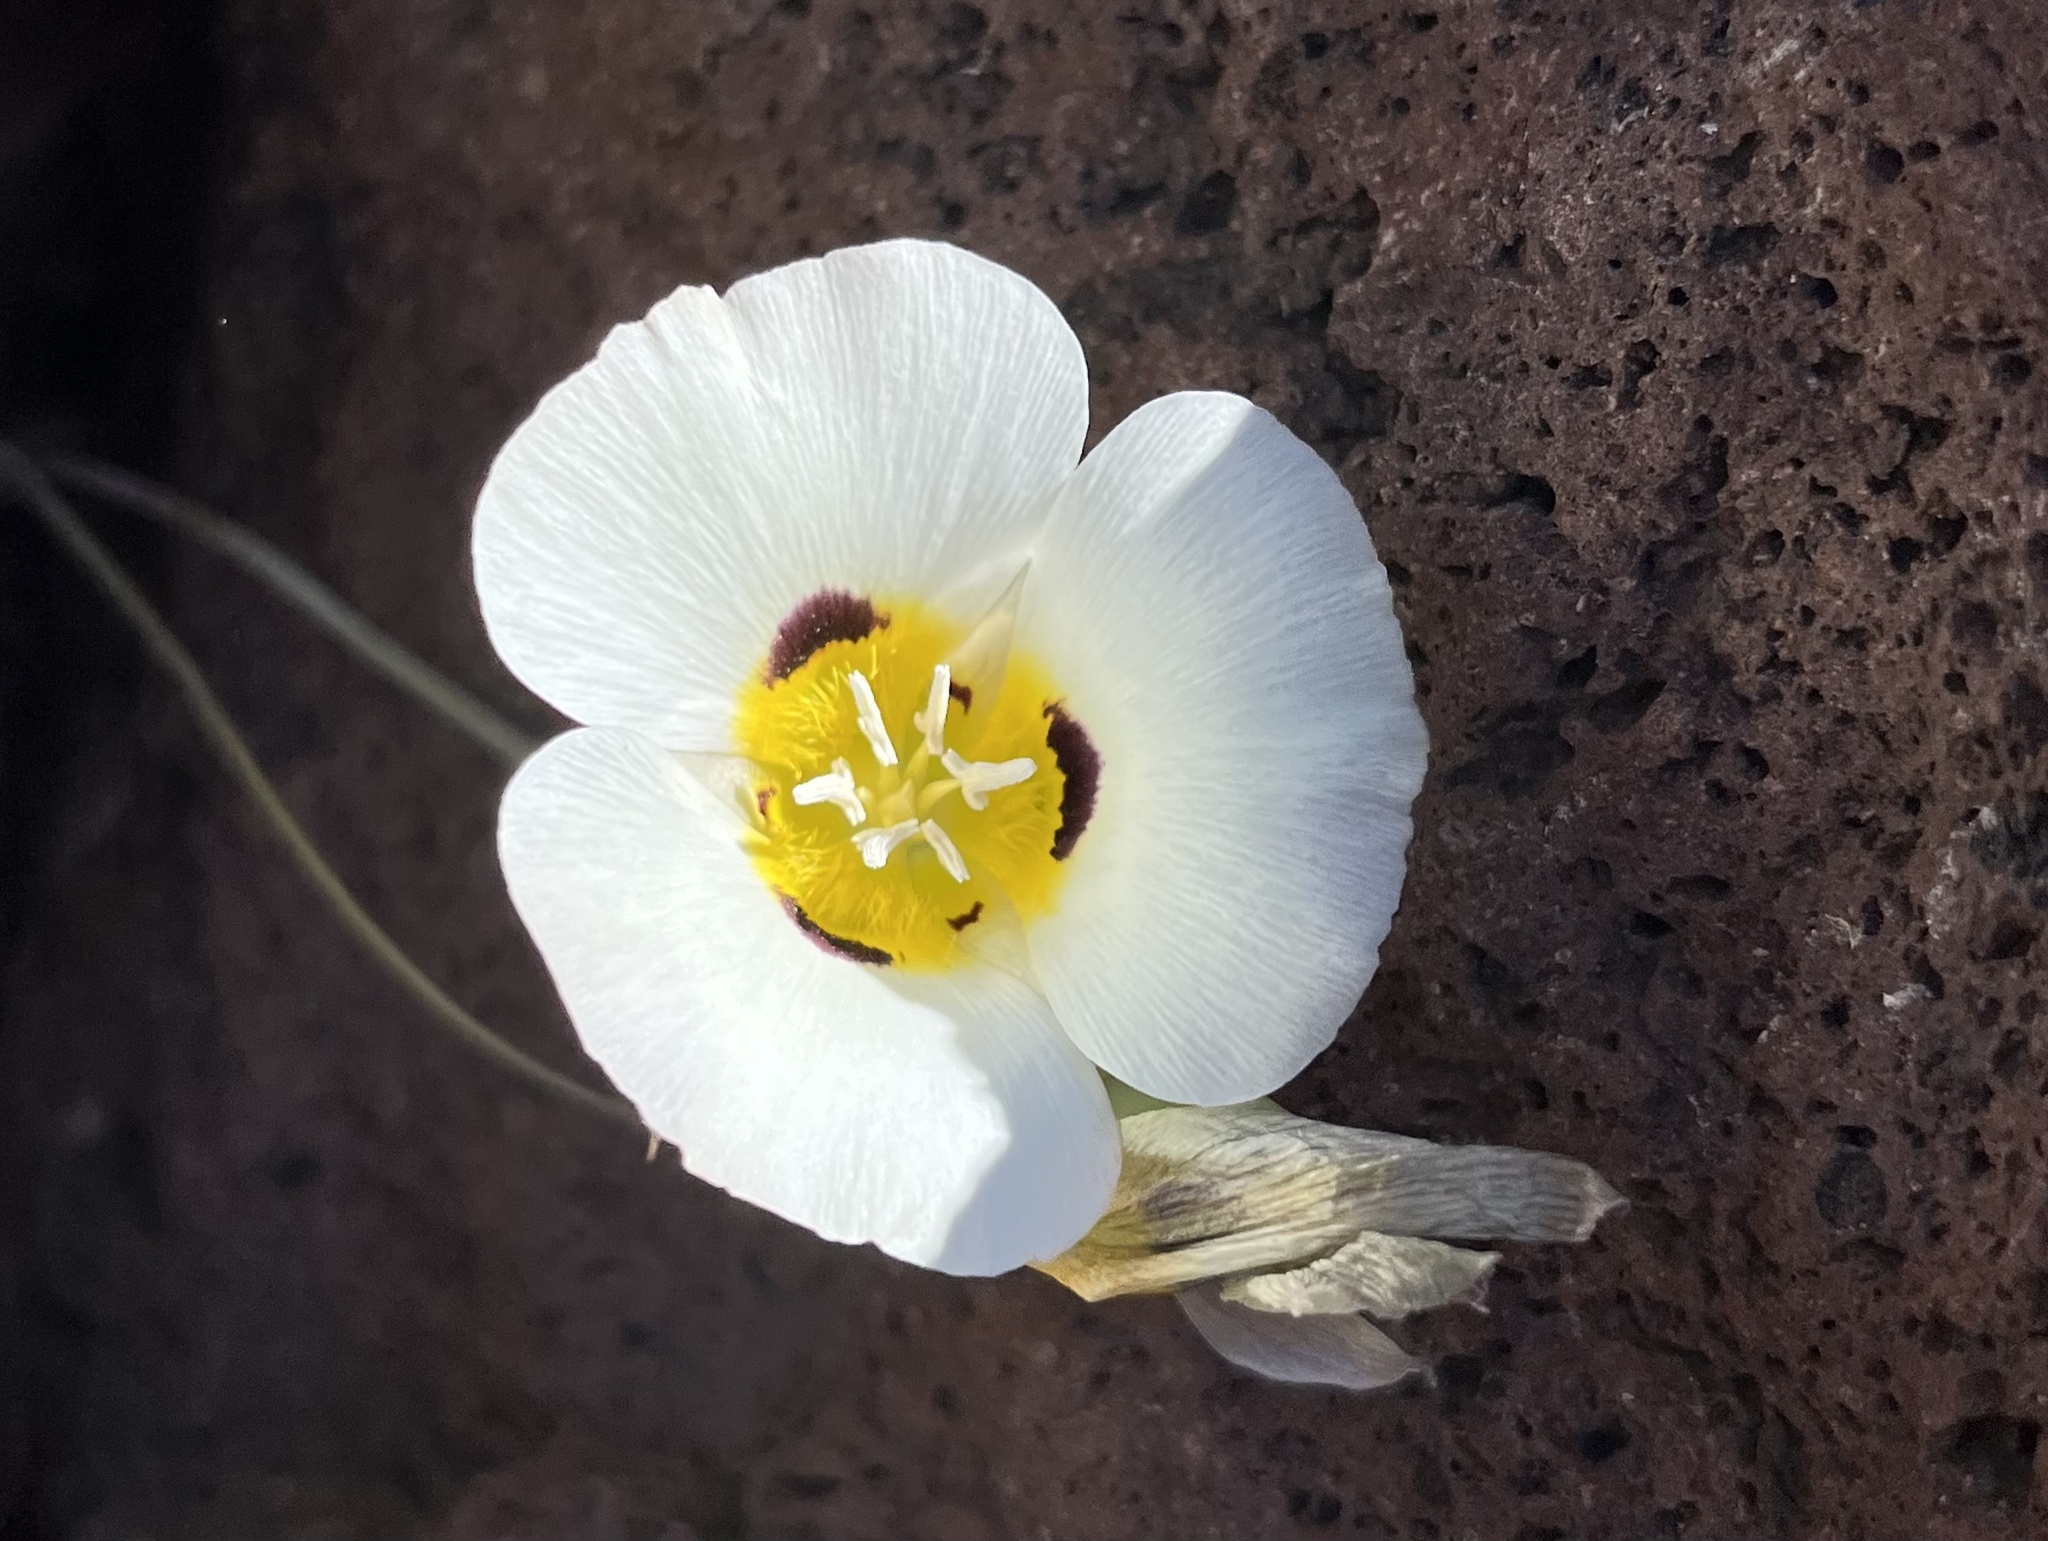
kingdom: Plantae
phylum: Tracheophyta
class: Liliopsida
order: Liliales
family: Liliaceae
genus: Calochortus
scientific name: Calochortus leichtlinii
